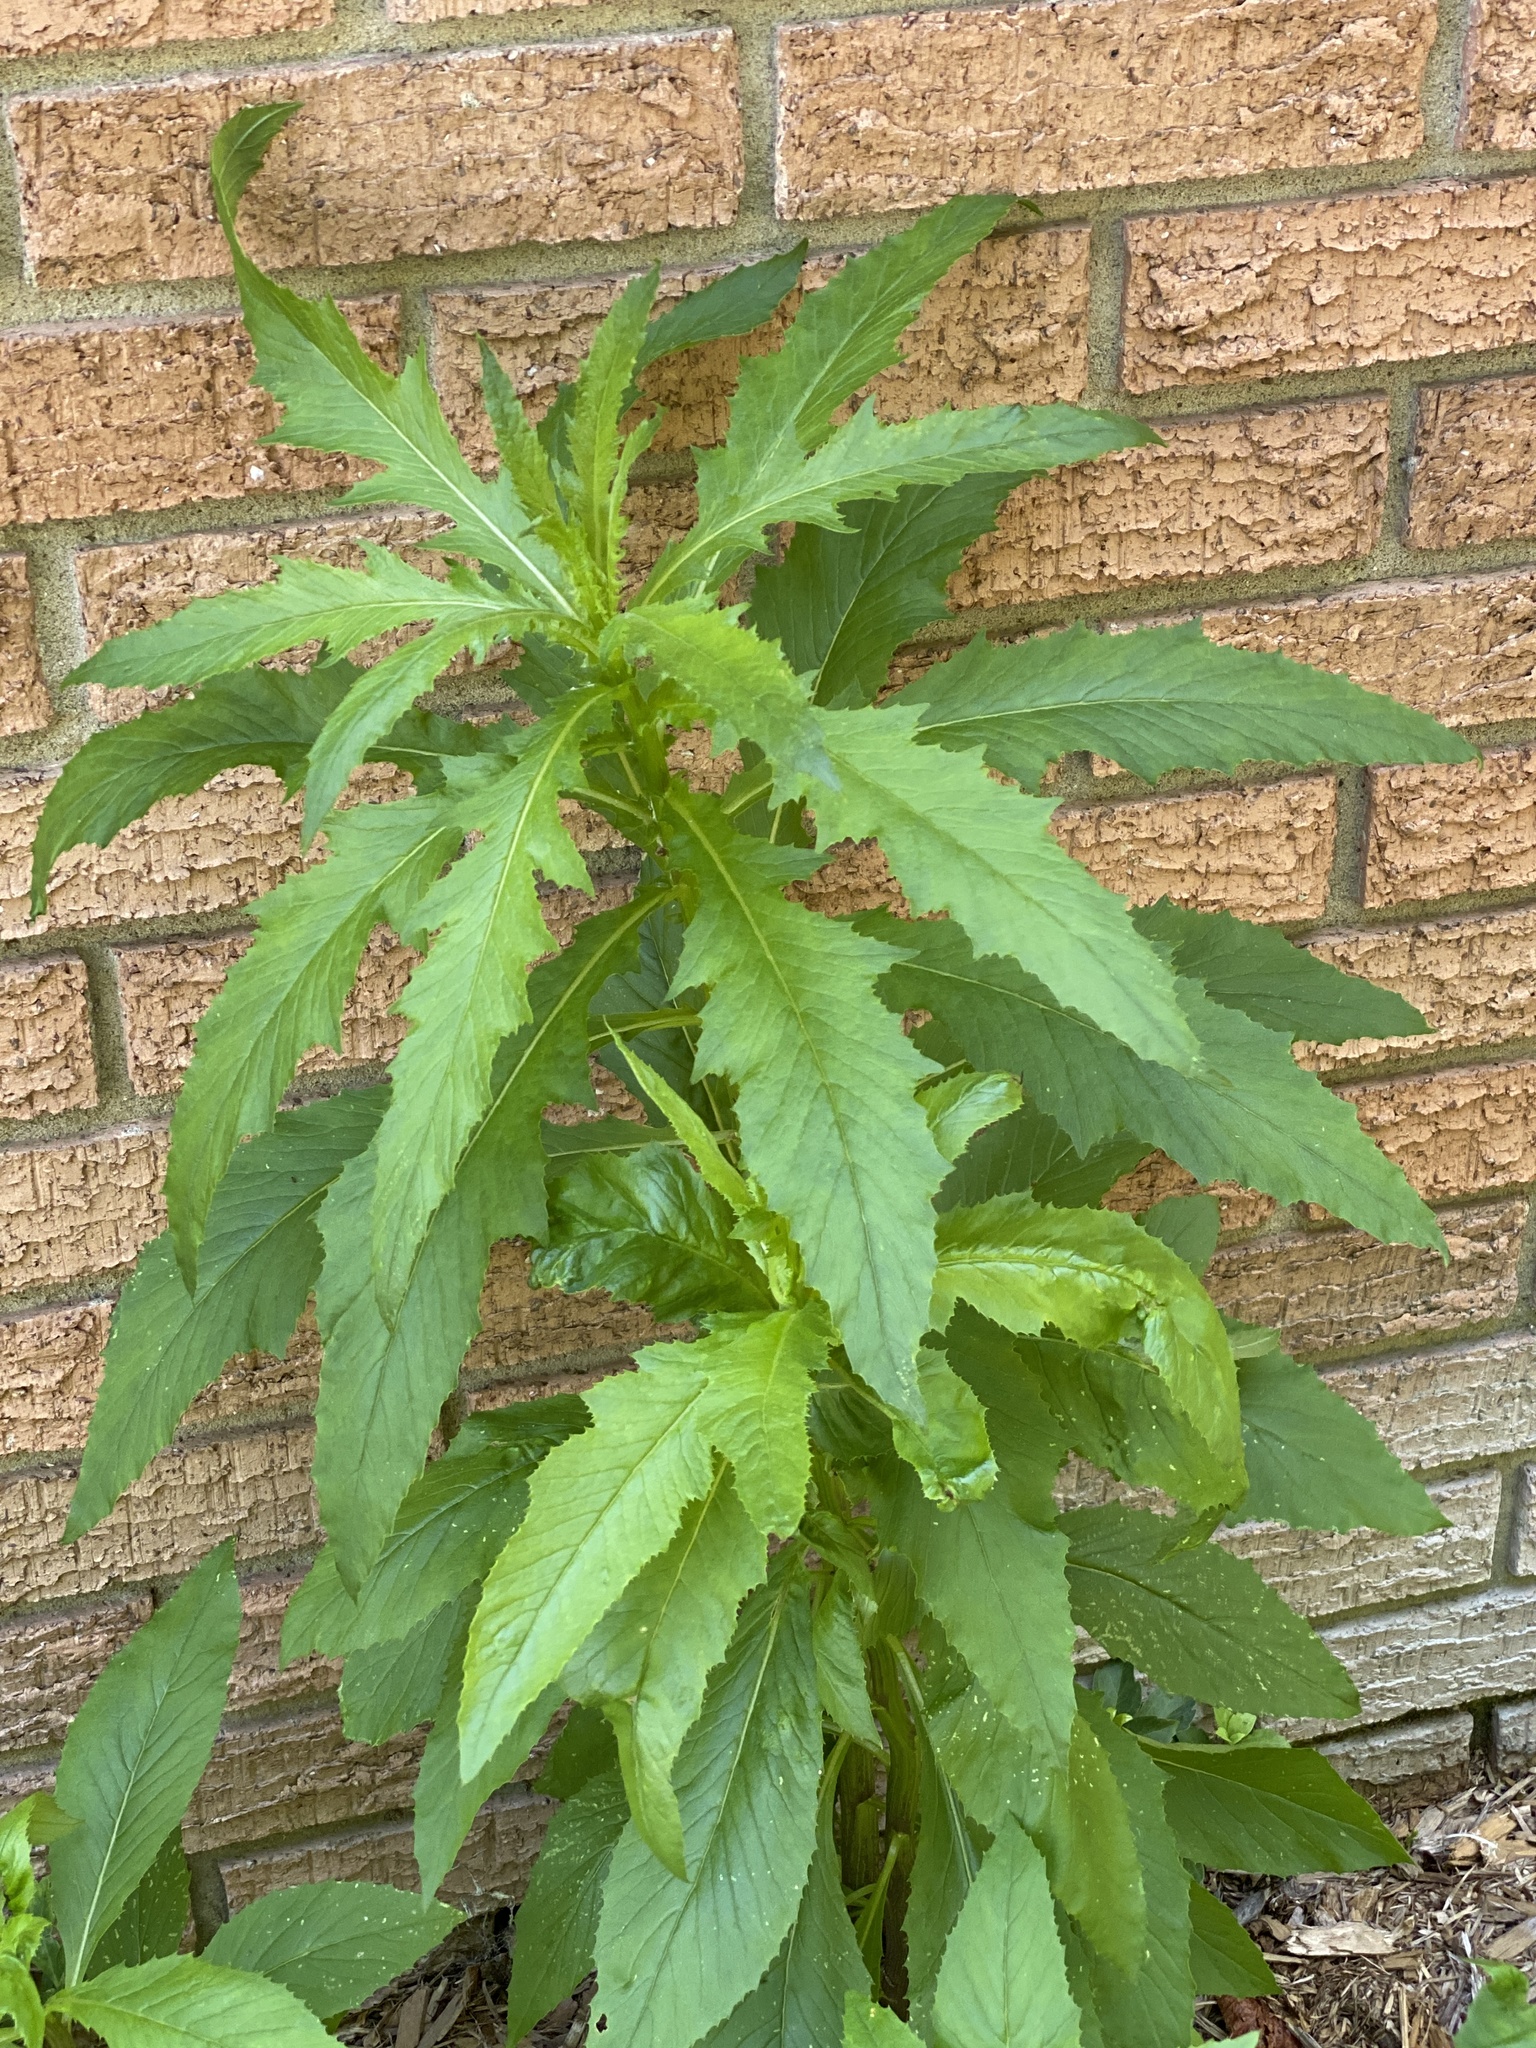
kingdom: Plantae
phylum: Tracheophyta
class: Magnoliopsida
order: Caryophyllales
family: Amaranthaceae
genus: Dysphania
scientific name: Dysphania ambrosioides
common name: Wormseed
